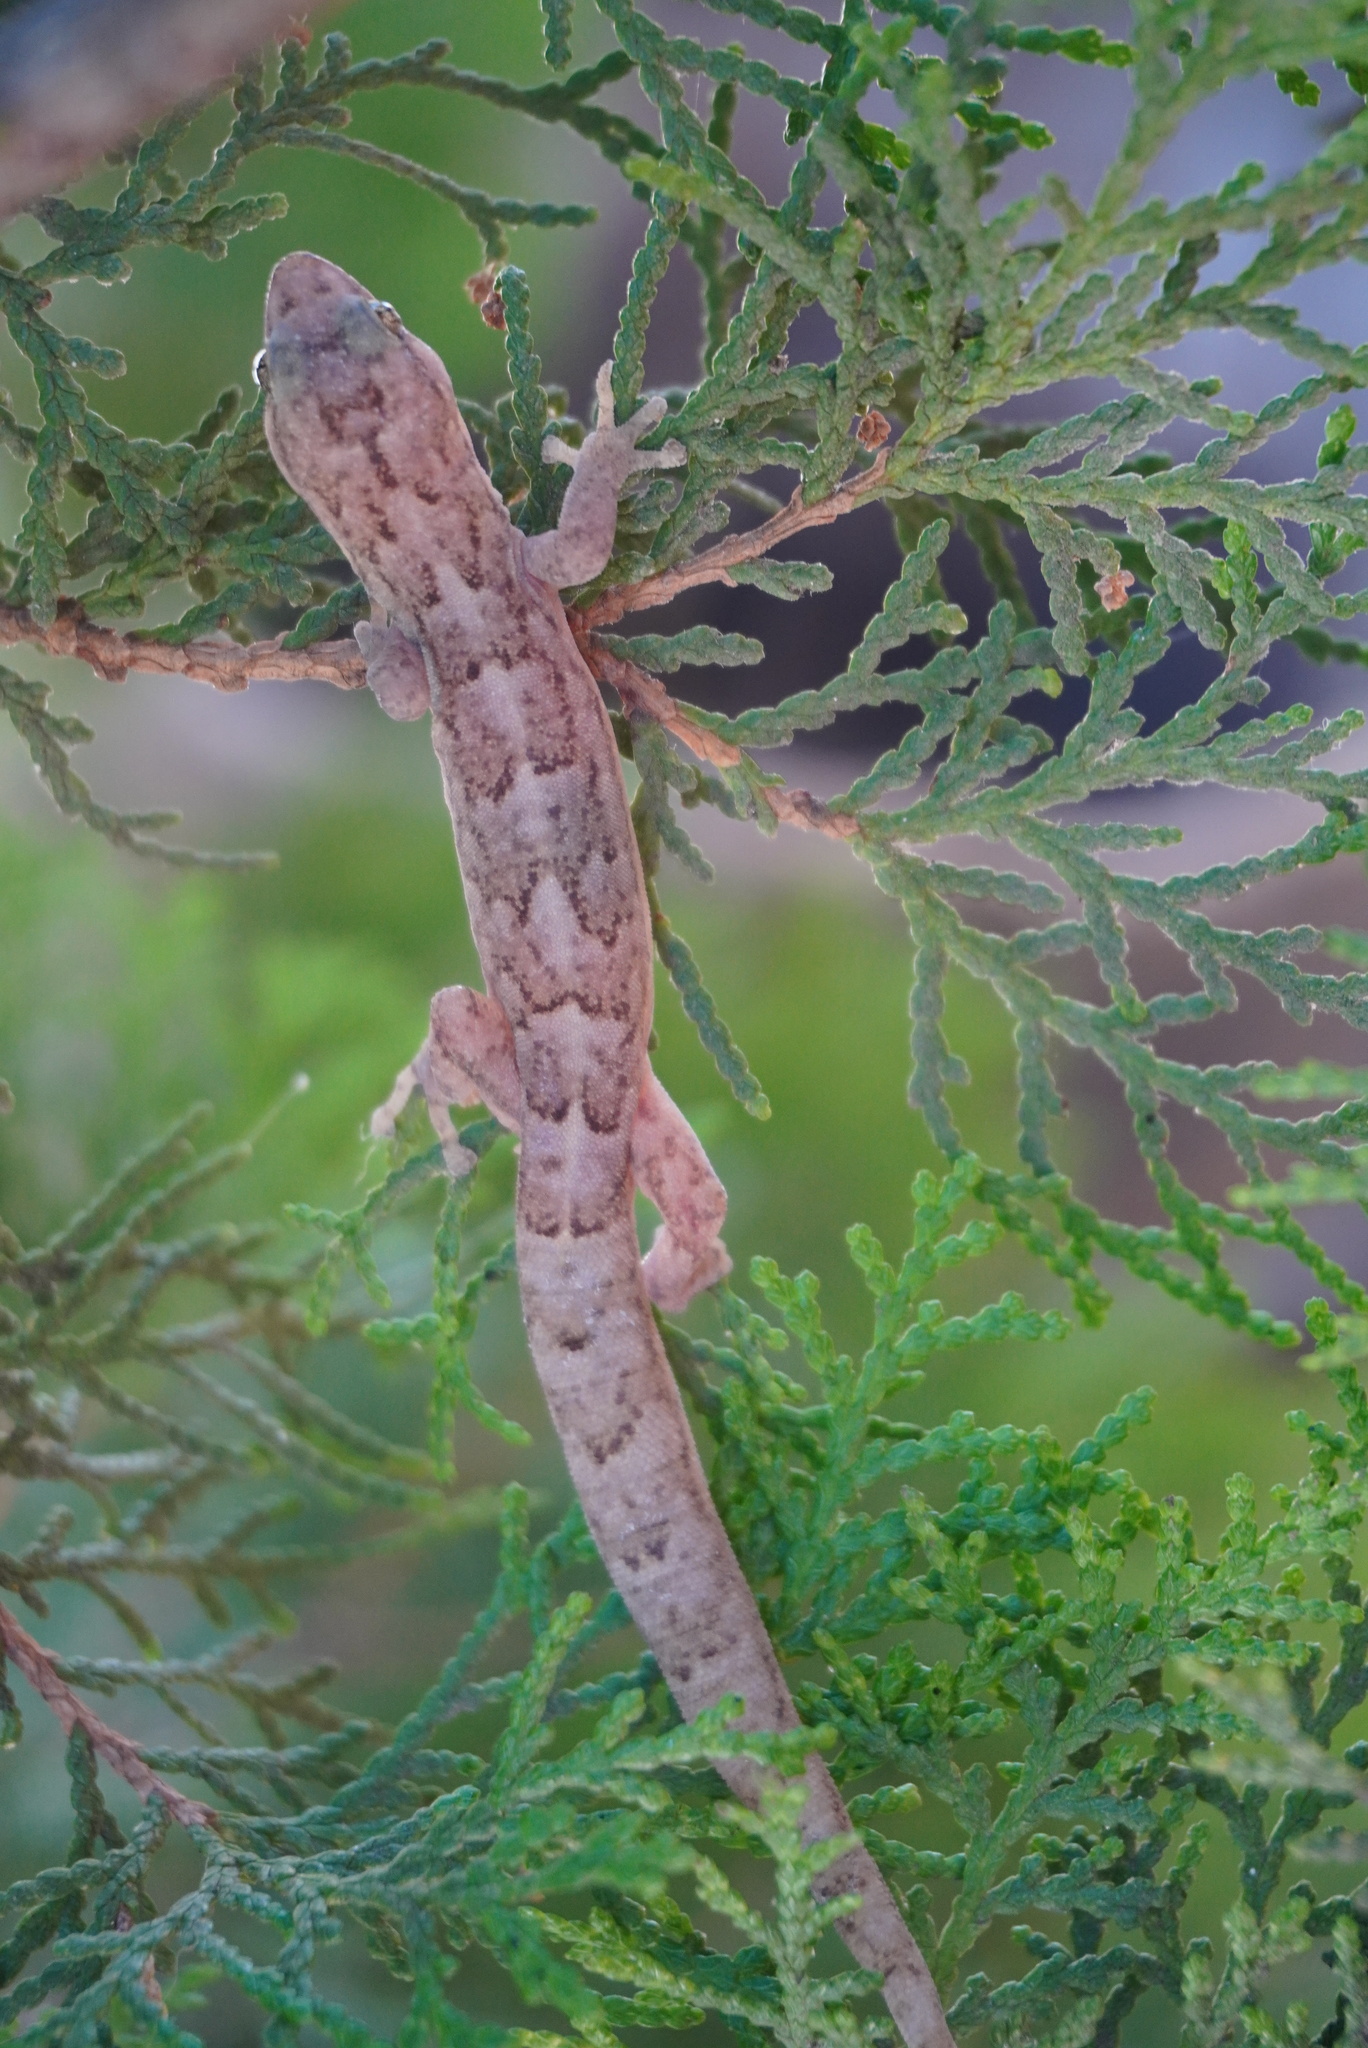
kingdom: Animalia
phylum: Chordata
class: Squamata
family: Gekkonidae
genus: Christinus
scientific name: Christinus marmoratus
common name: Marbled gecko
